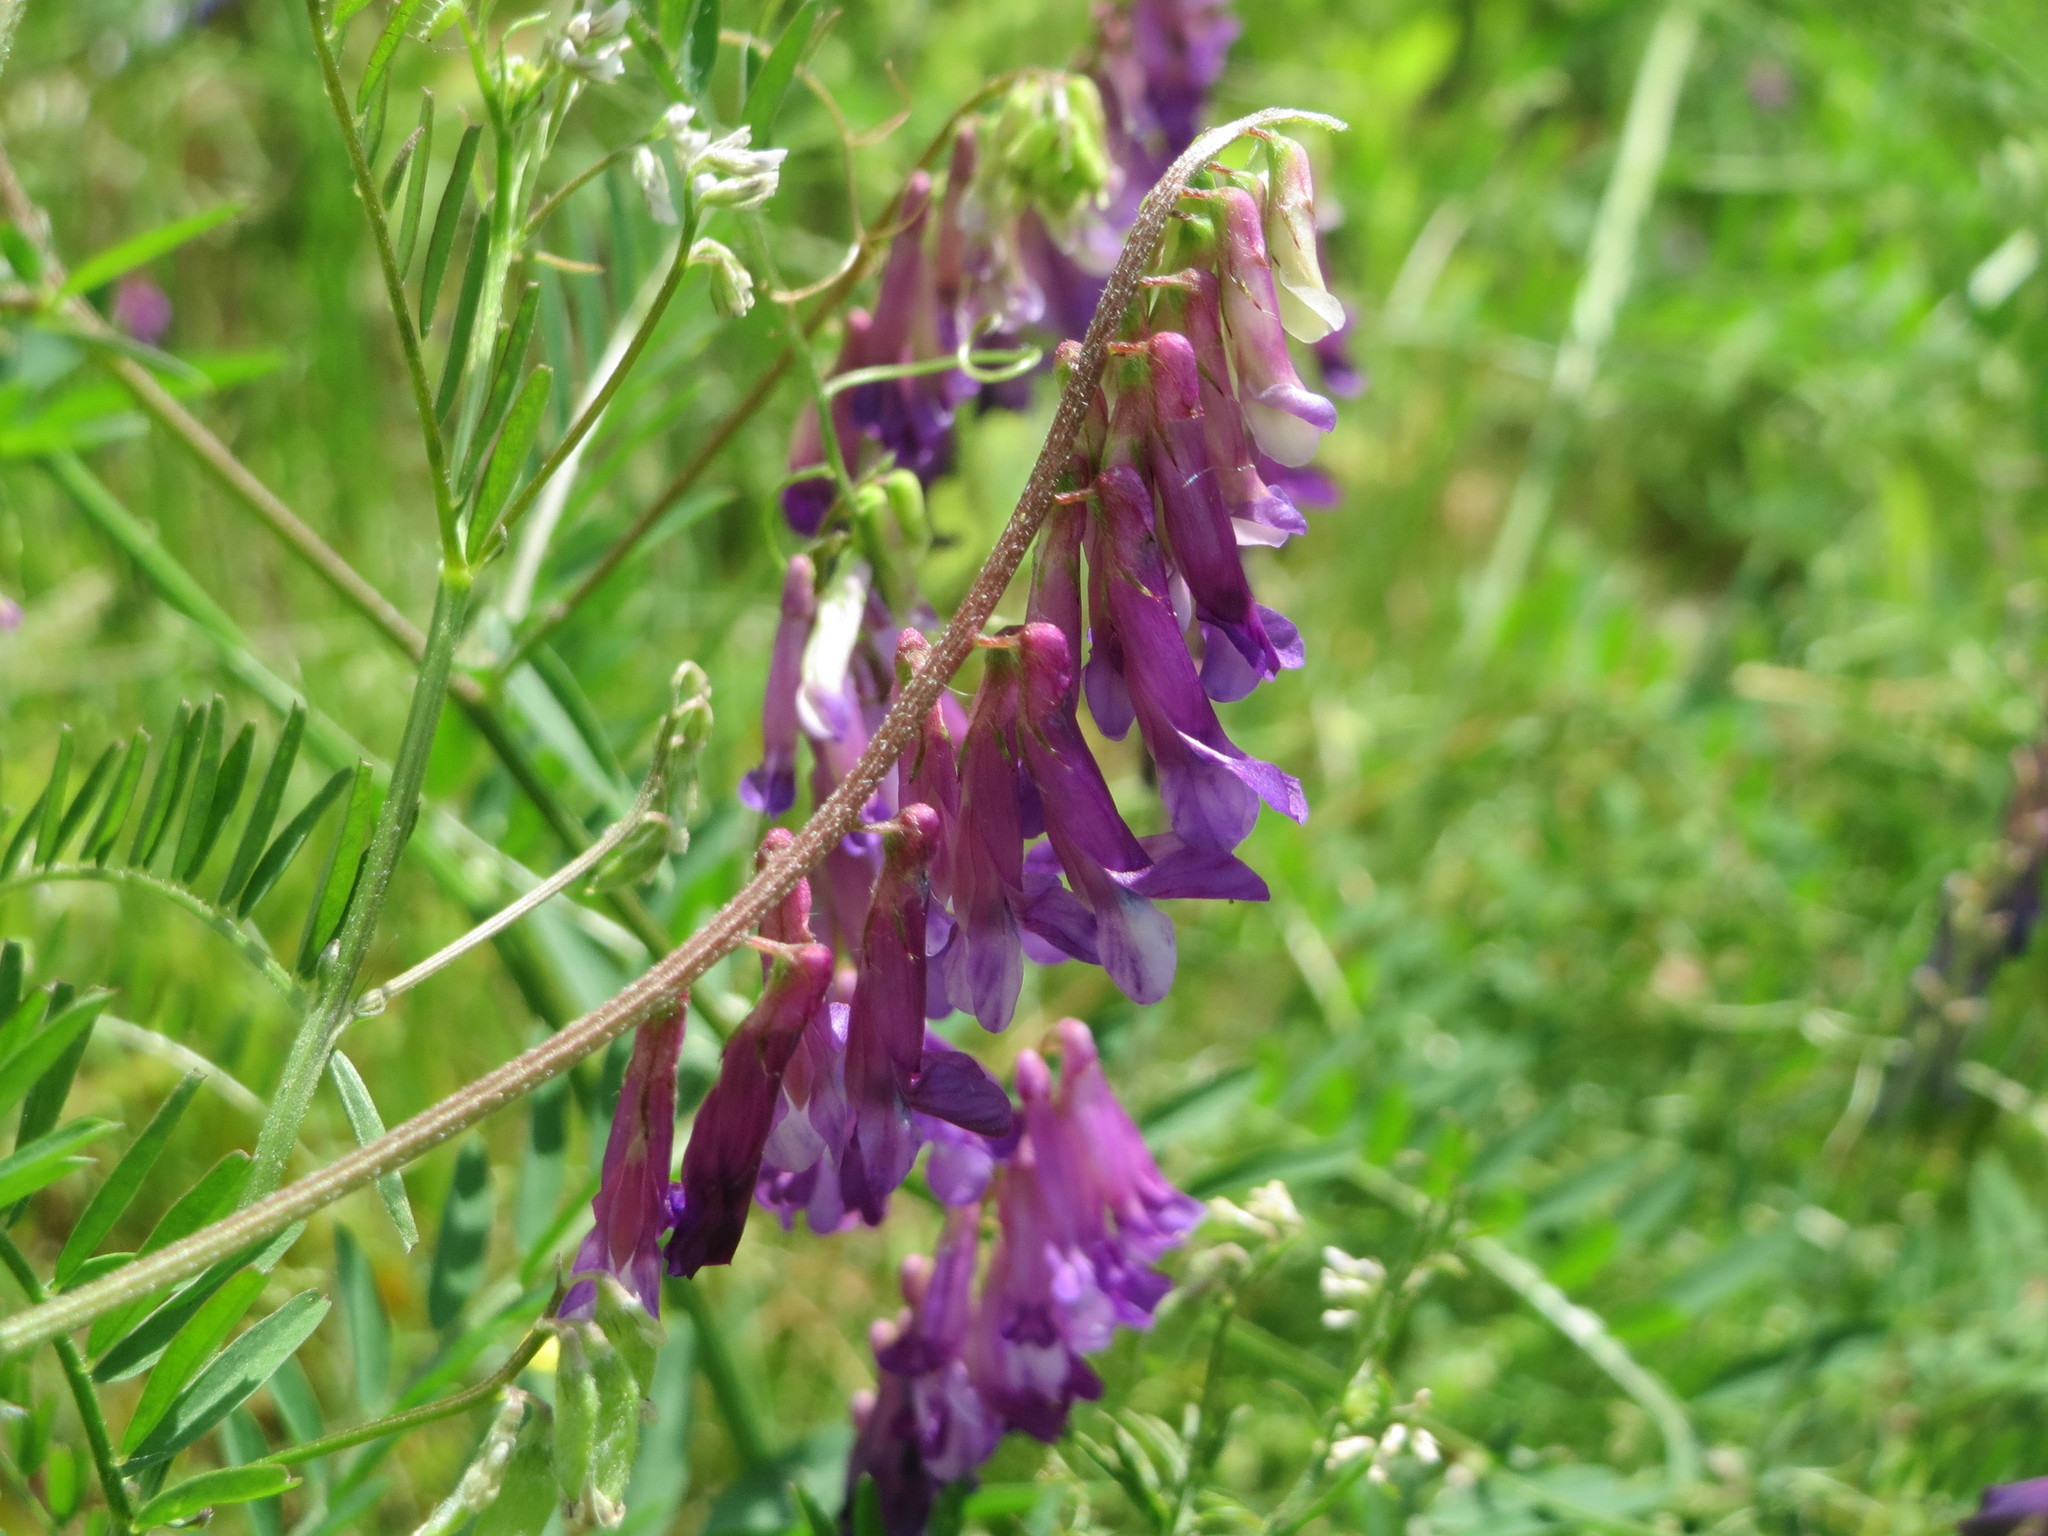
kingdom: Plantae
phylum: Tracheophyta
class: Magnoliopsida
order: Fabales
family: Fabaceae
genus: Vicia
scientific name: Vicia cracca
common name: Bird vetch
